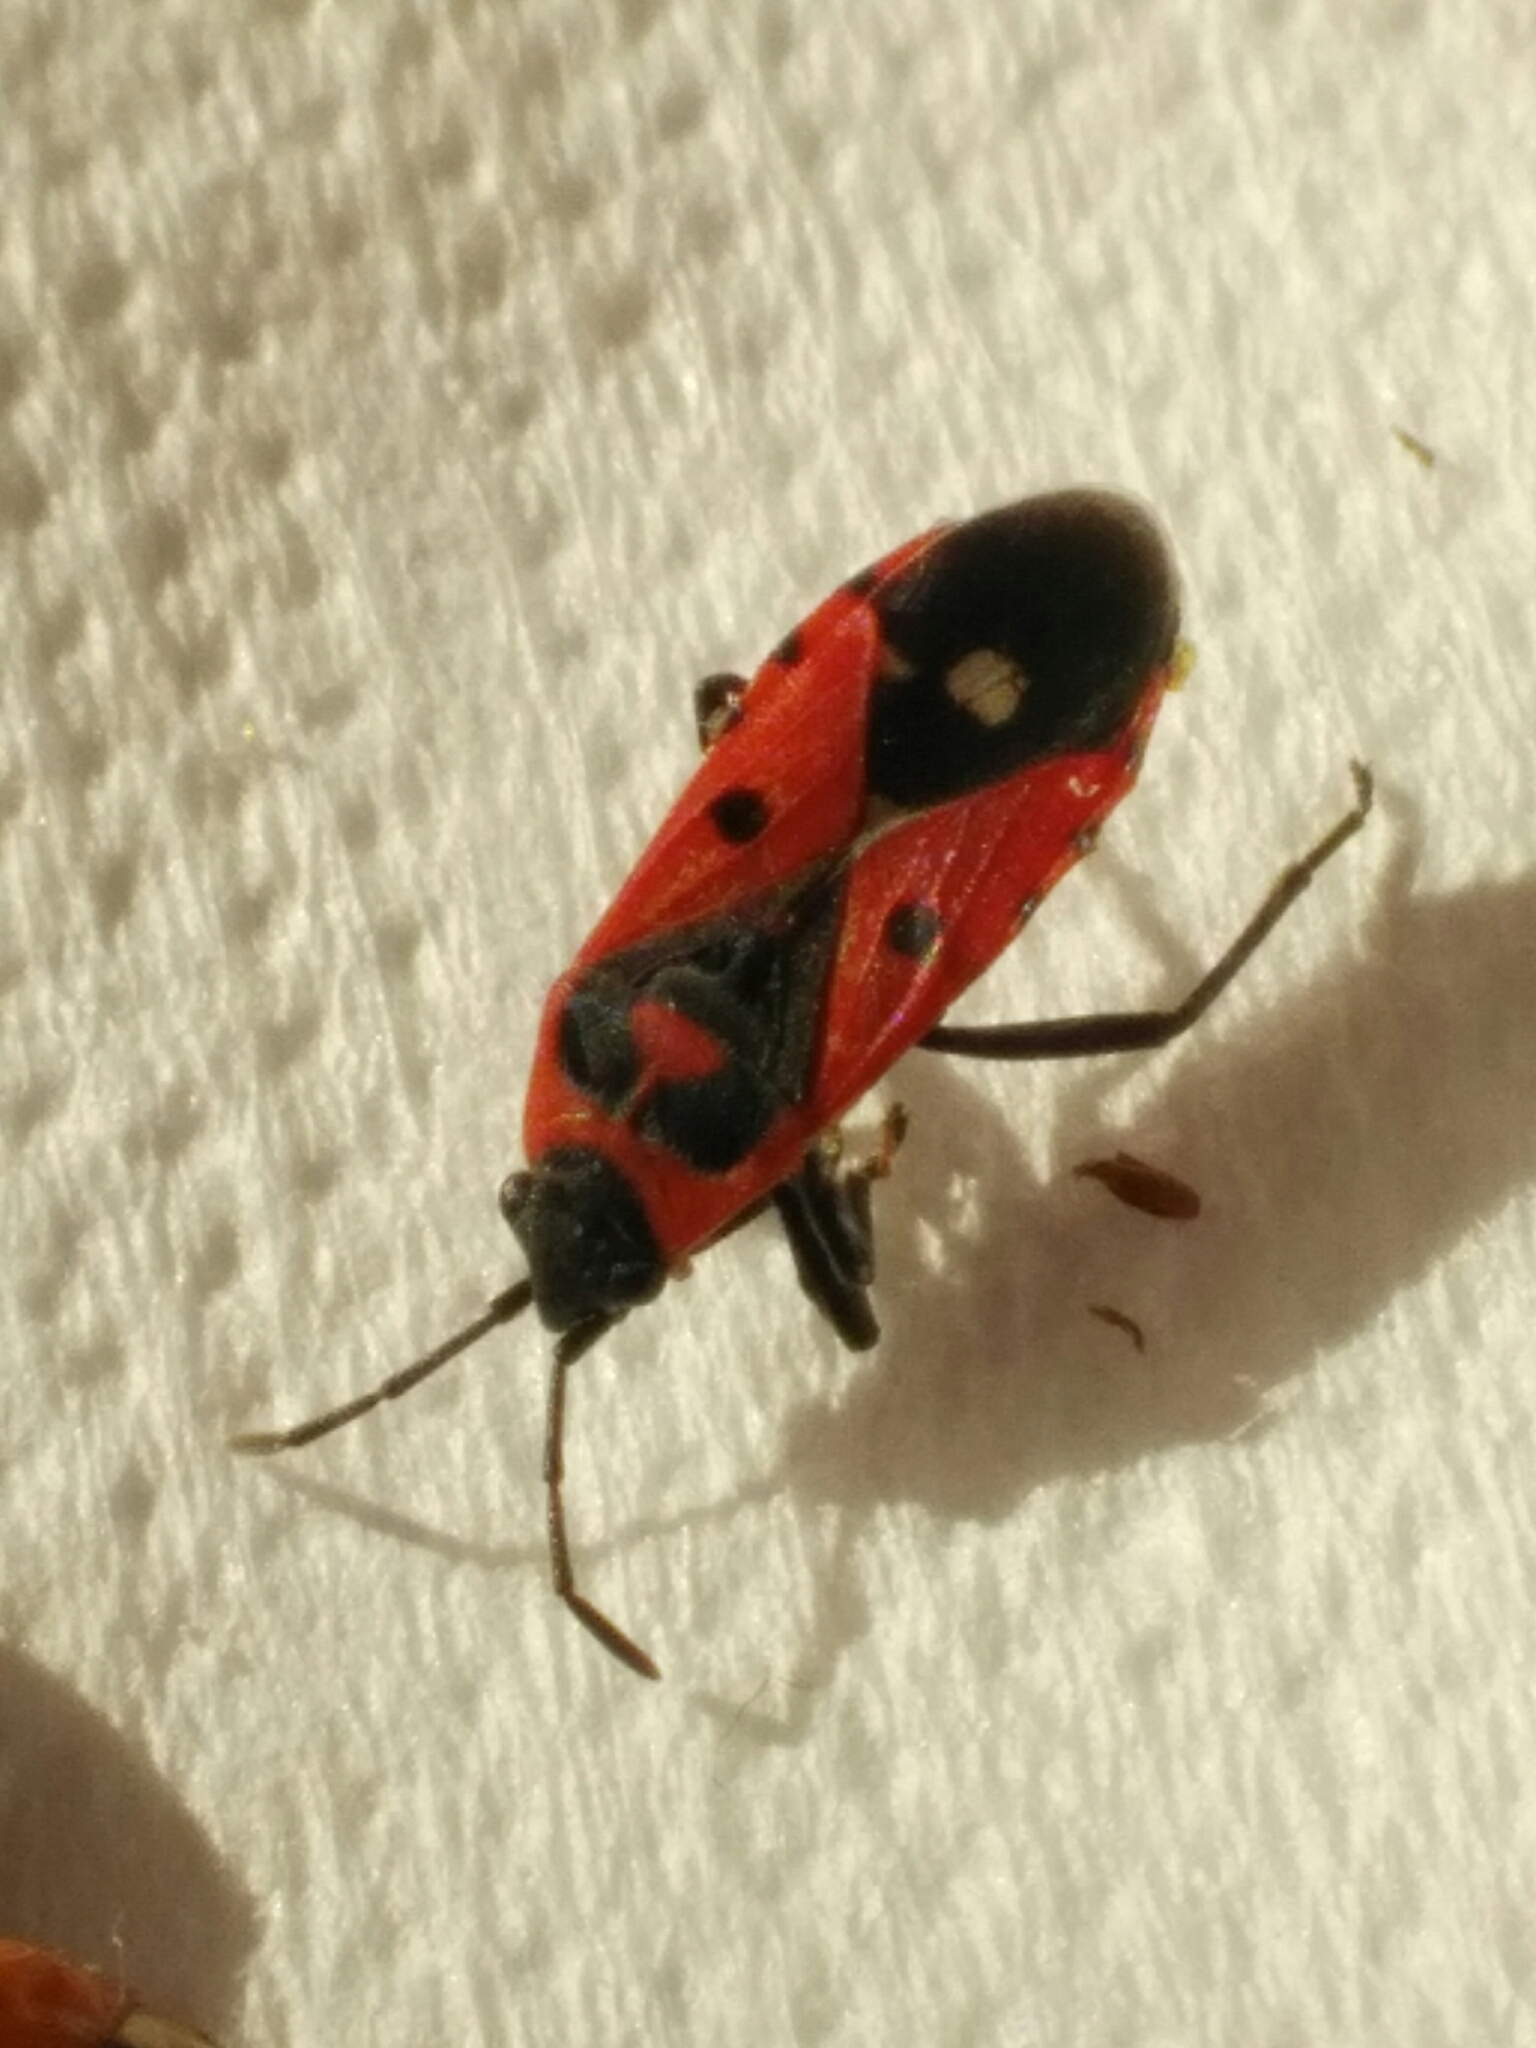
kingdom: Animalia
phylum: Arthropoda
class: Insecta
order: Hemiptera
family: Lygaeidae
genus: Melanocoryphus
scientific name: Melanocoryphus albomaculatus
